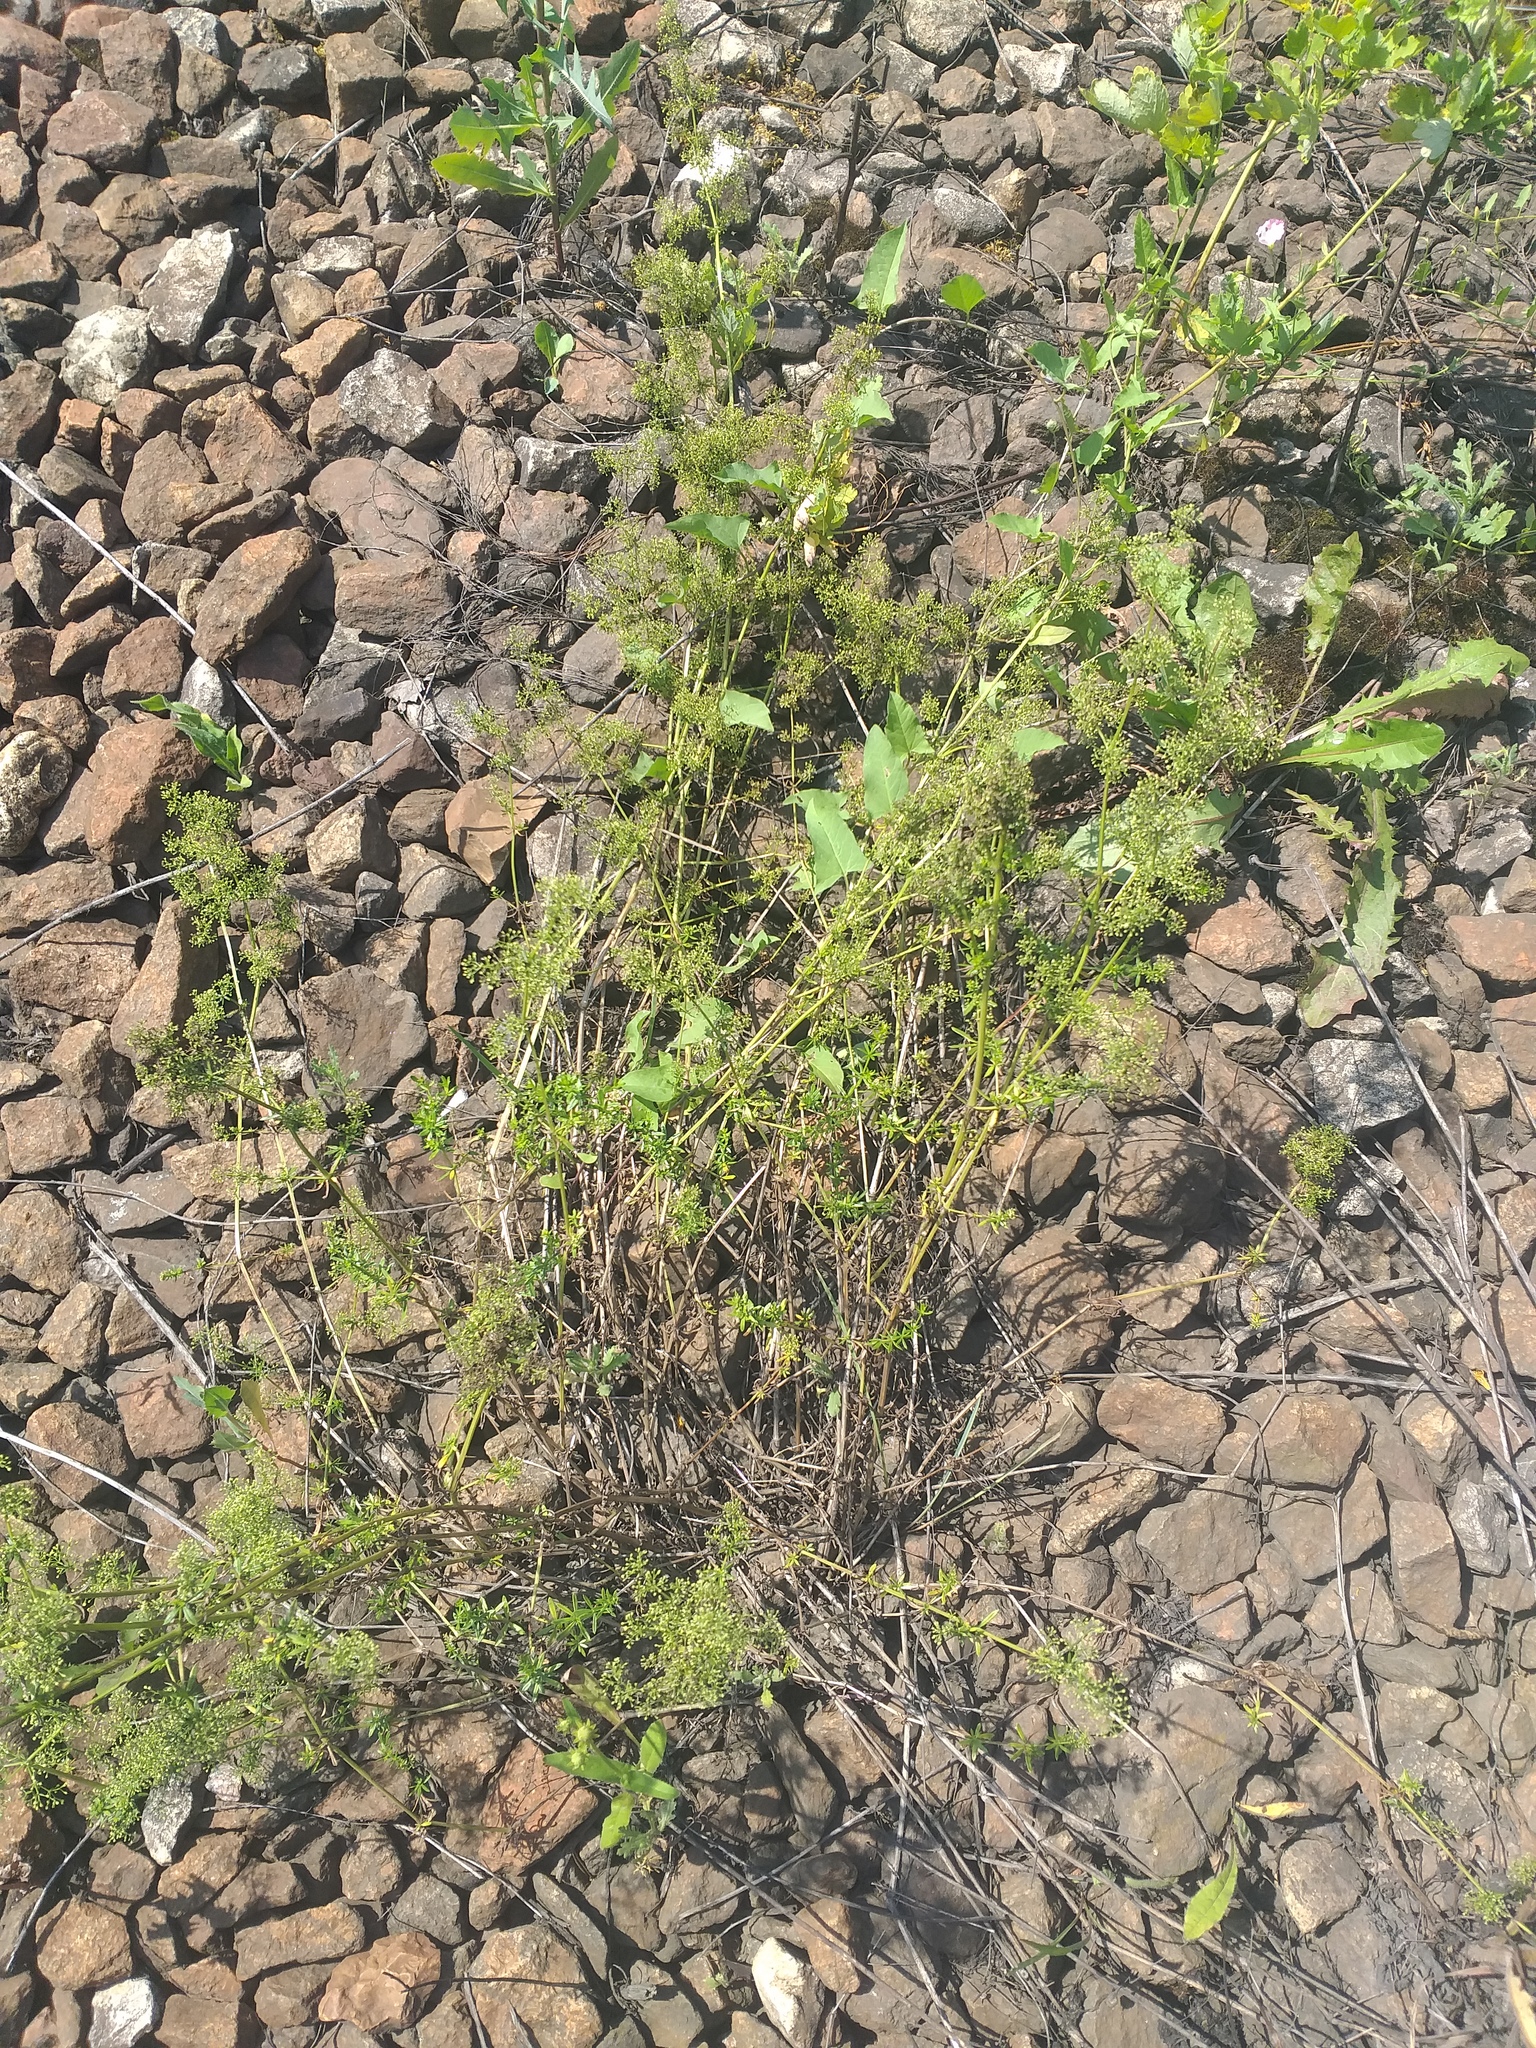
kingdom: Plantae
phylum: Tracheophyta
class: Magnoliopsida
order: Gentianales
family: Rubiaceae
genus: Galium
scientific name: Galium mollugo
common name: Hedge bedstraw
